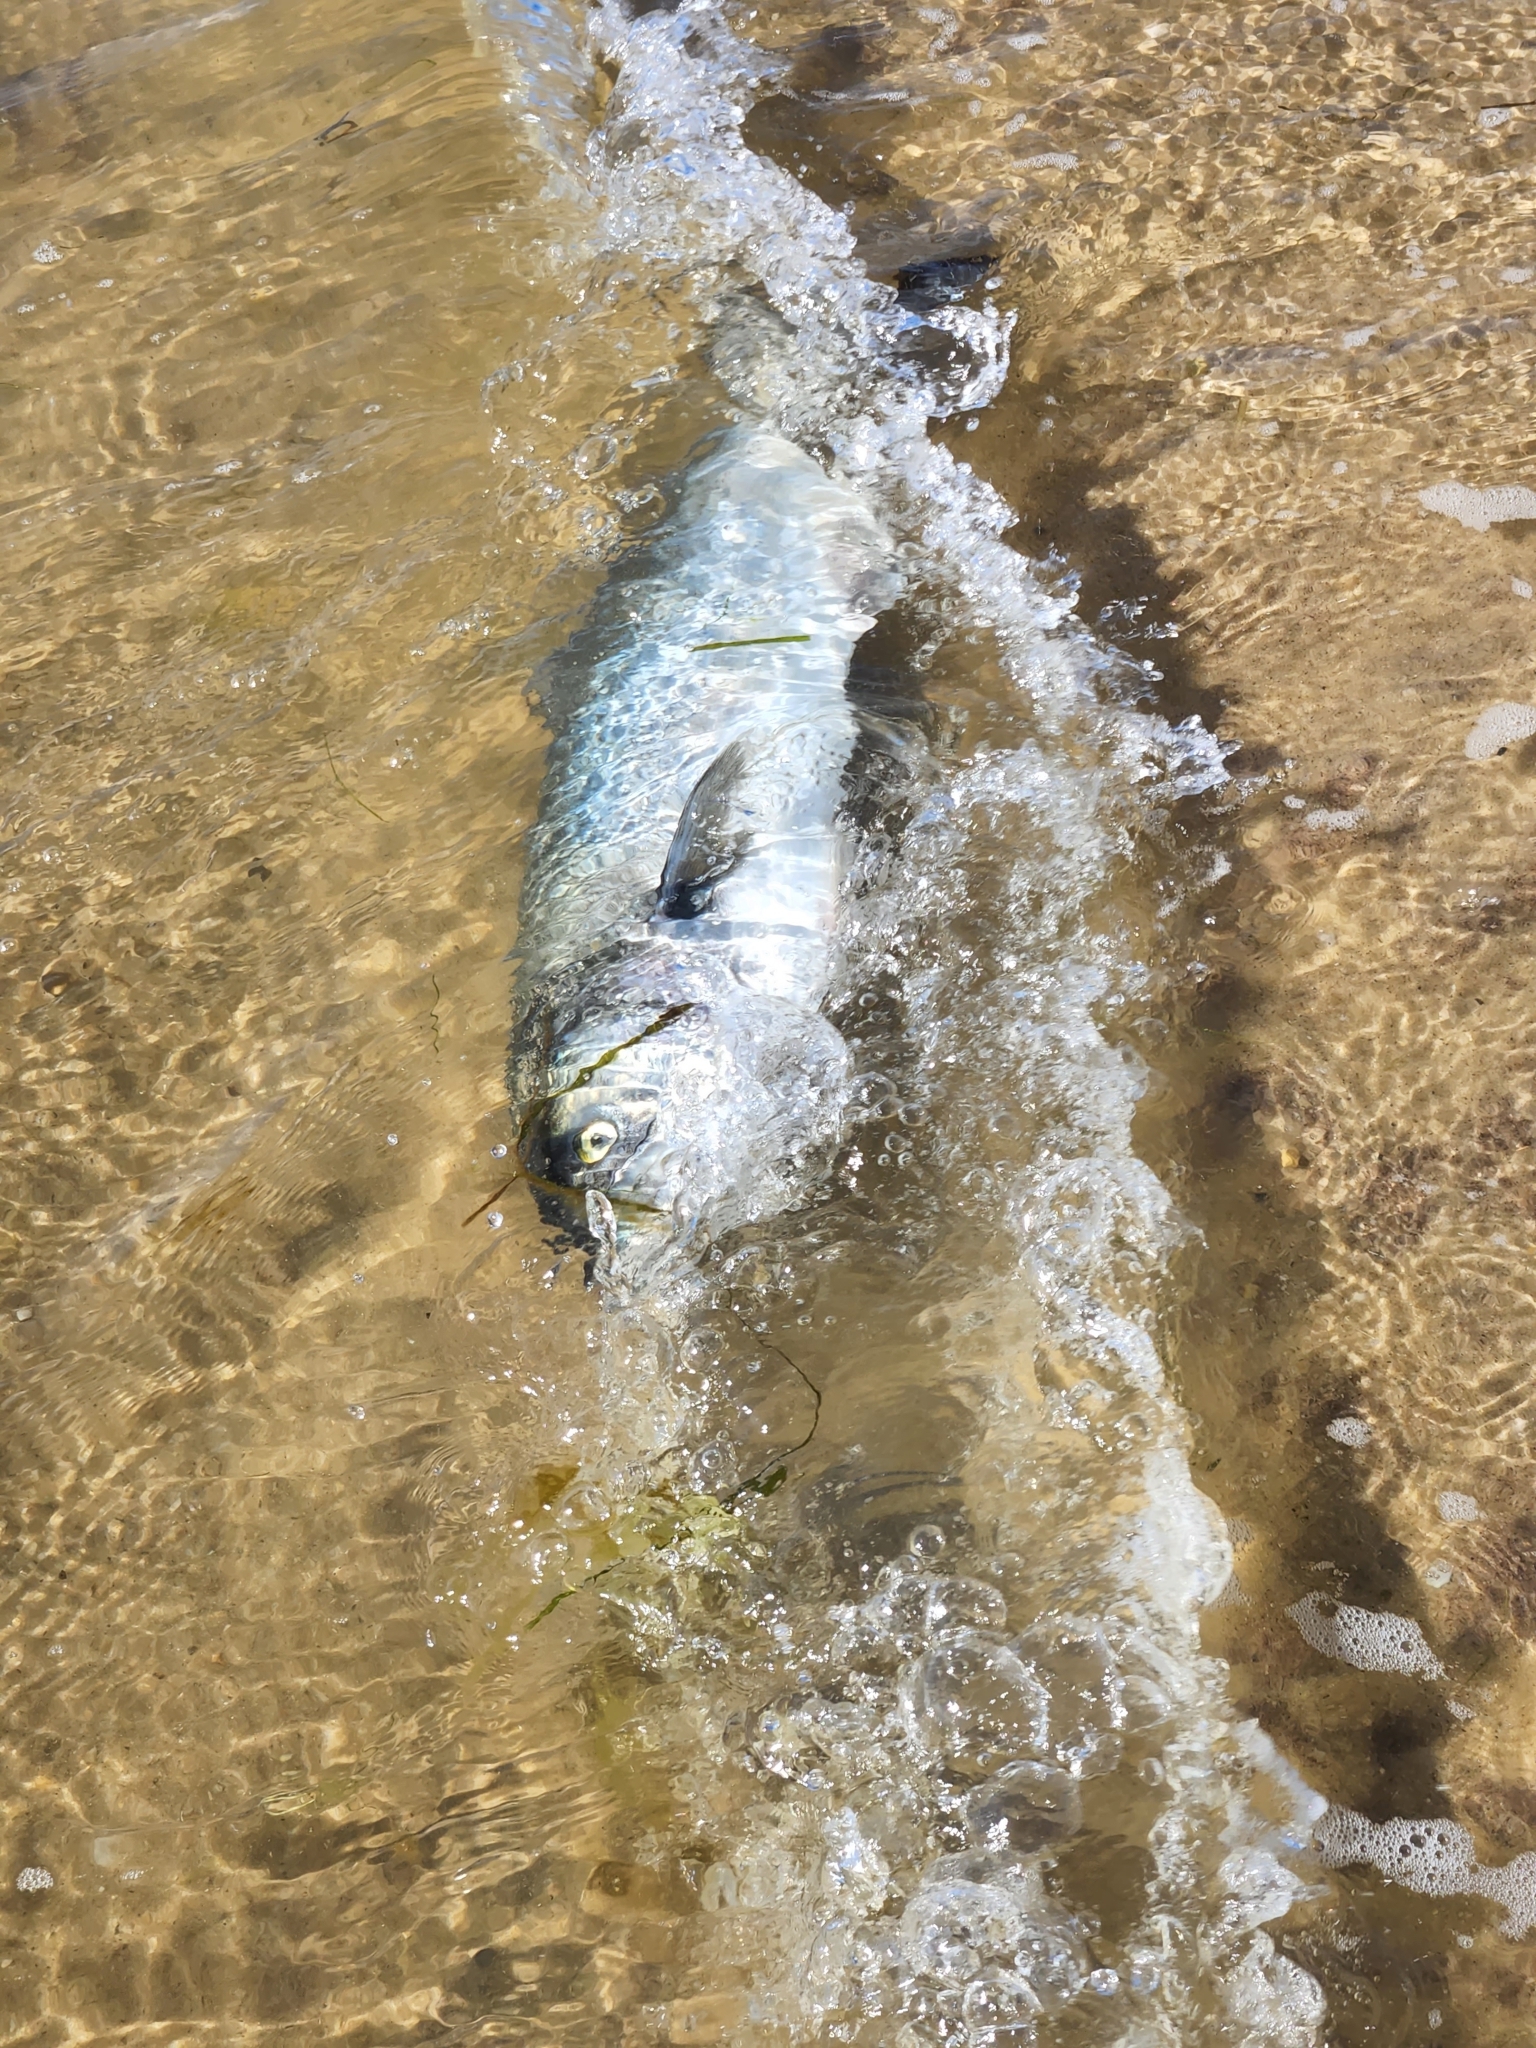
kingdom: Animalia
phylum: Chordata
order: Perciformes
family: Pomatomidae
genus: Pomatomus
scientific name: Pomatomus saltatrix
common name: Bluefish
